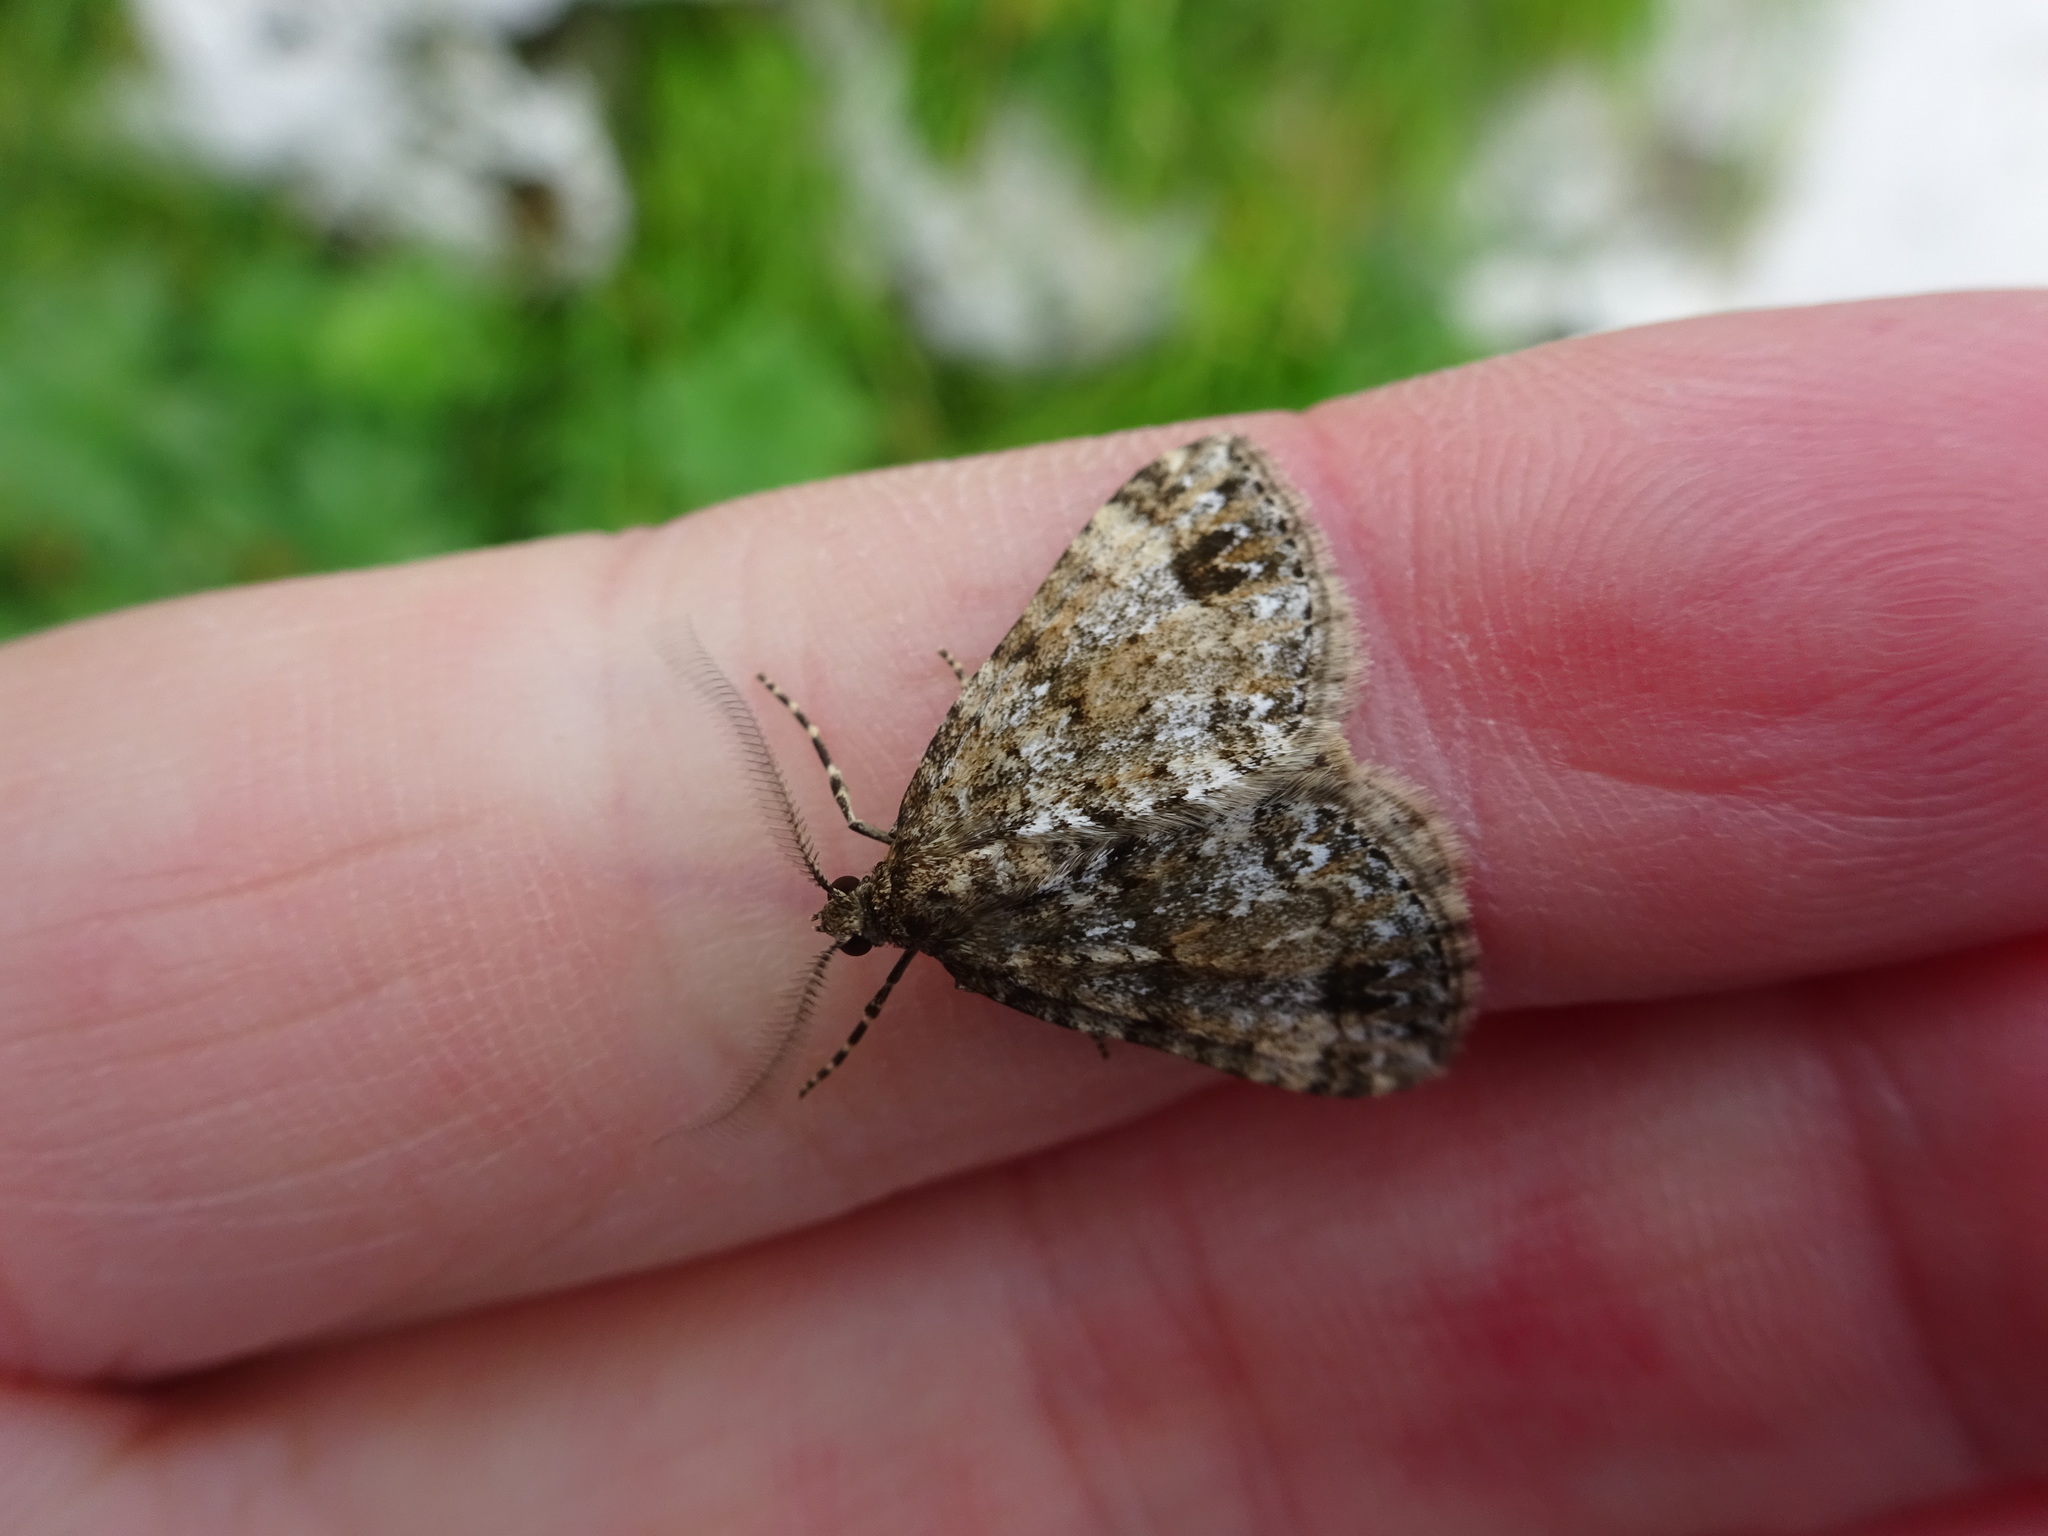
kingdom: Animalia
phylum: Arthropoda
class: Insecta
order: Lepidoptera
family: Geometridae
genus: Perizoma
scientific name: Perizoma didymata
